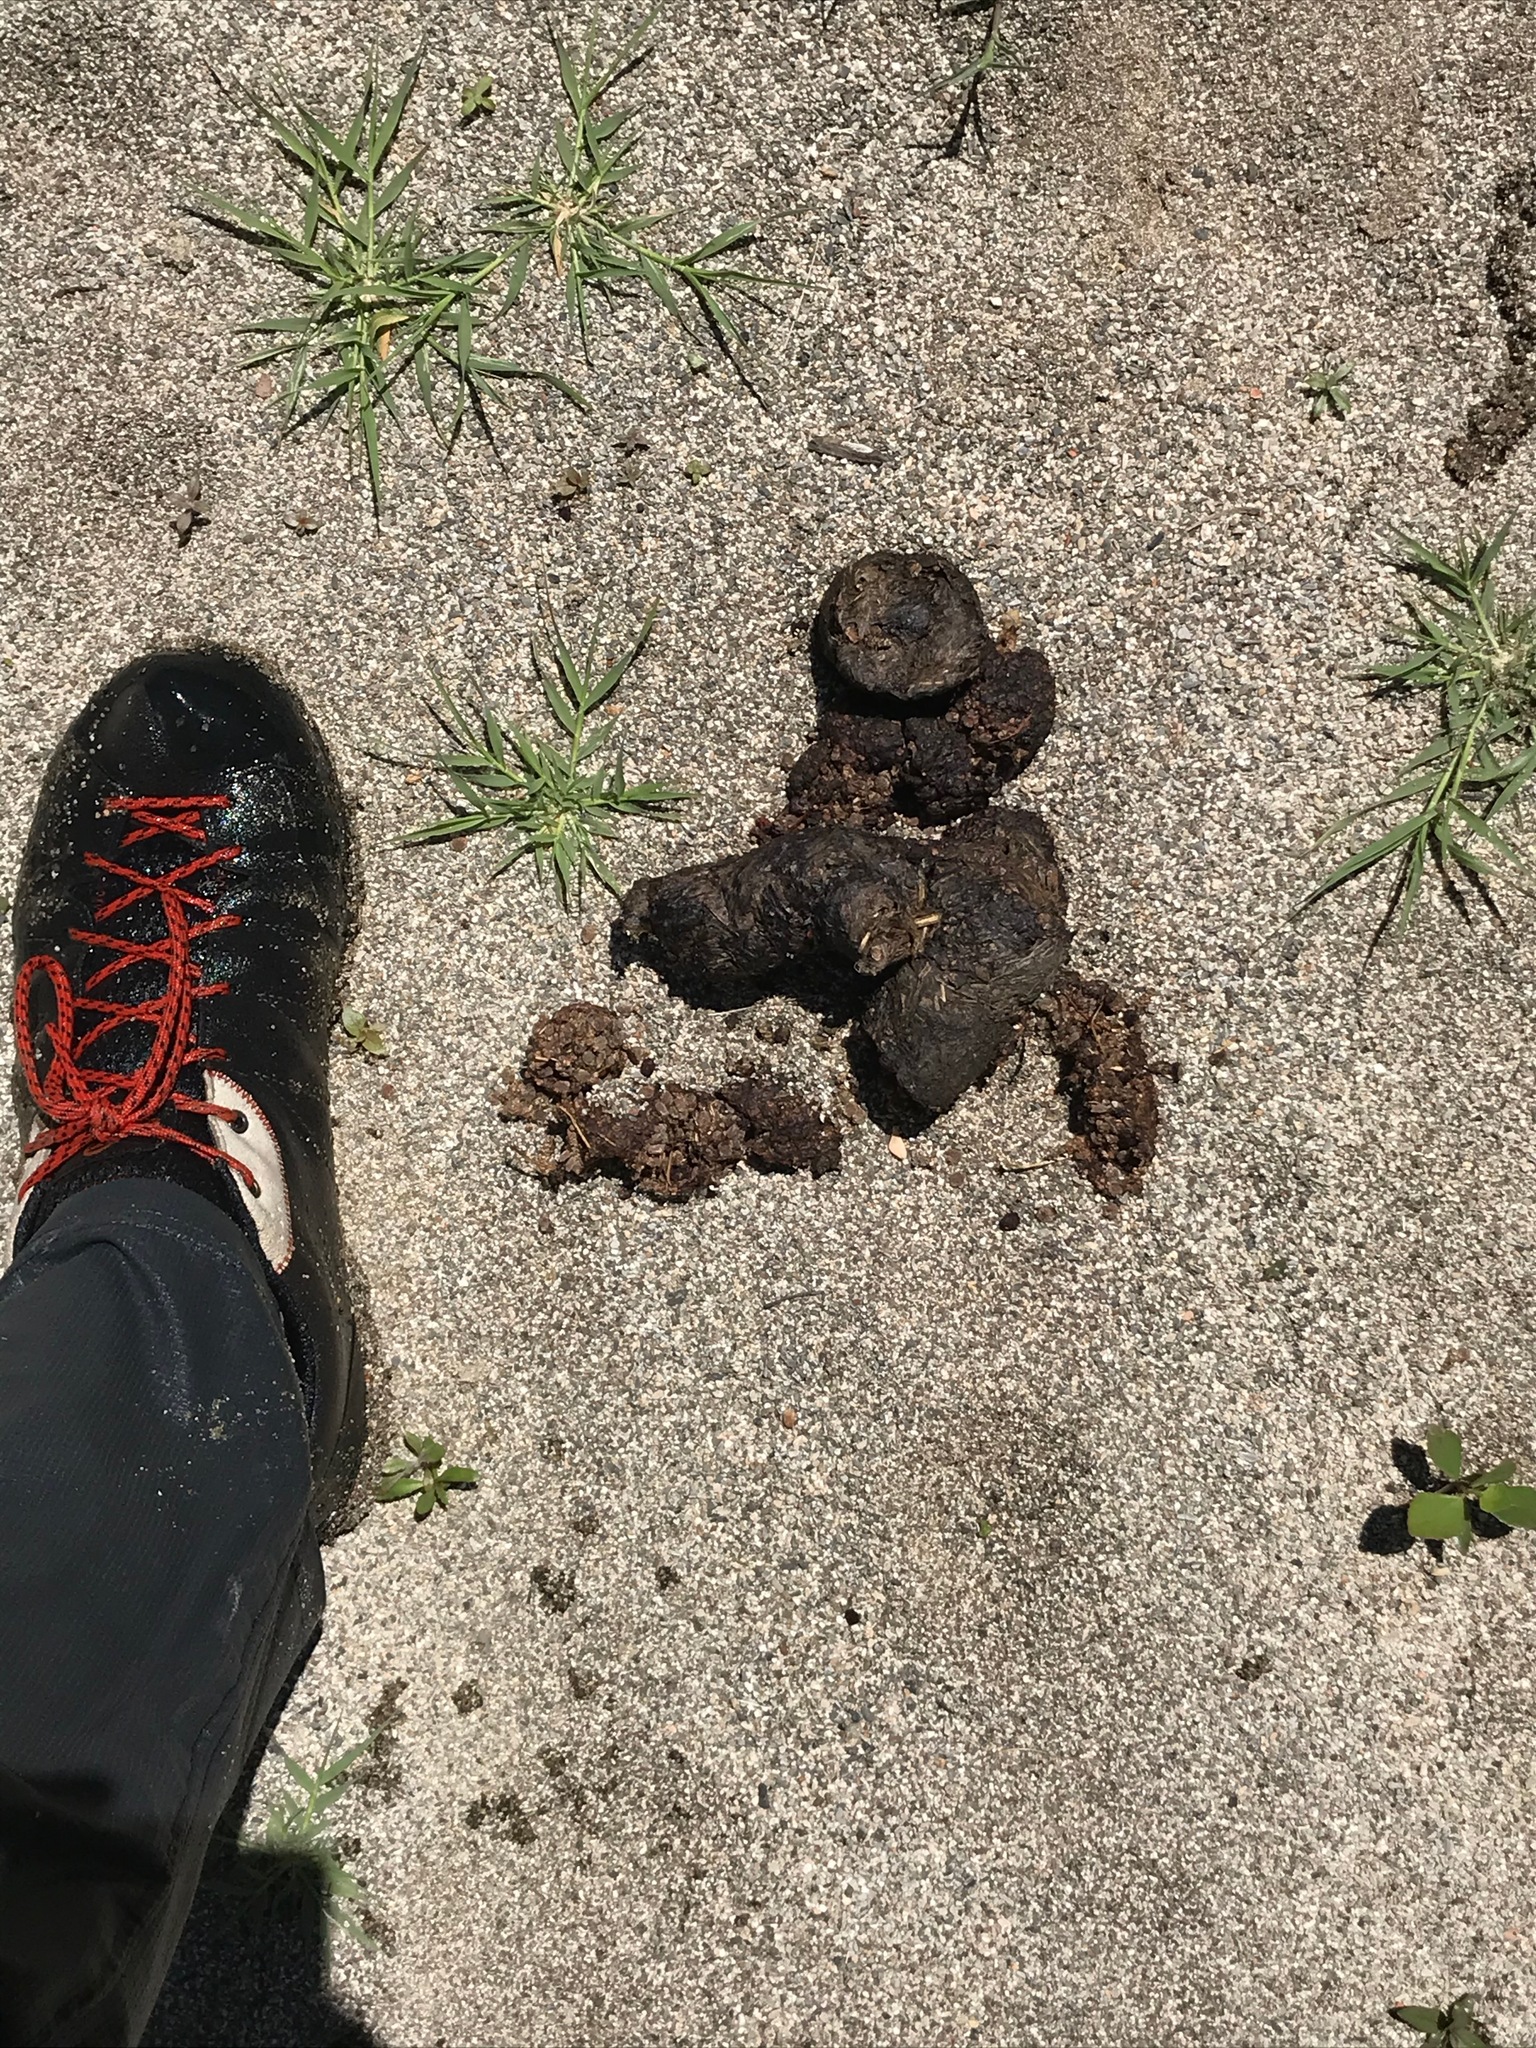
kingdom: Animalia
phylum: Chordata
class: Mammalia
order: Carnivora
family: Ursidae
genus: Ursus
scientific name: Ursus americanus
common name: American black bear
